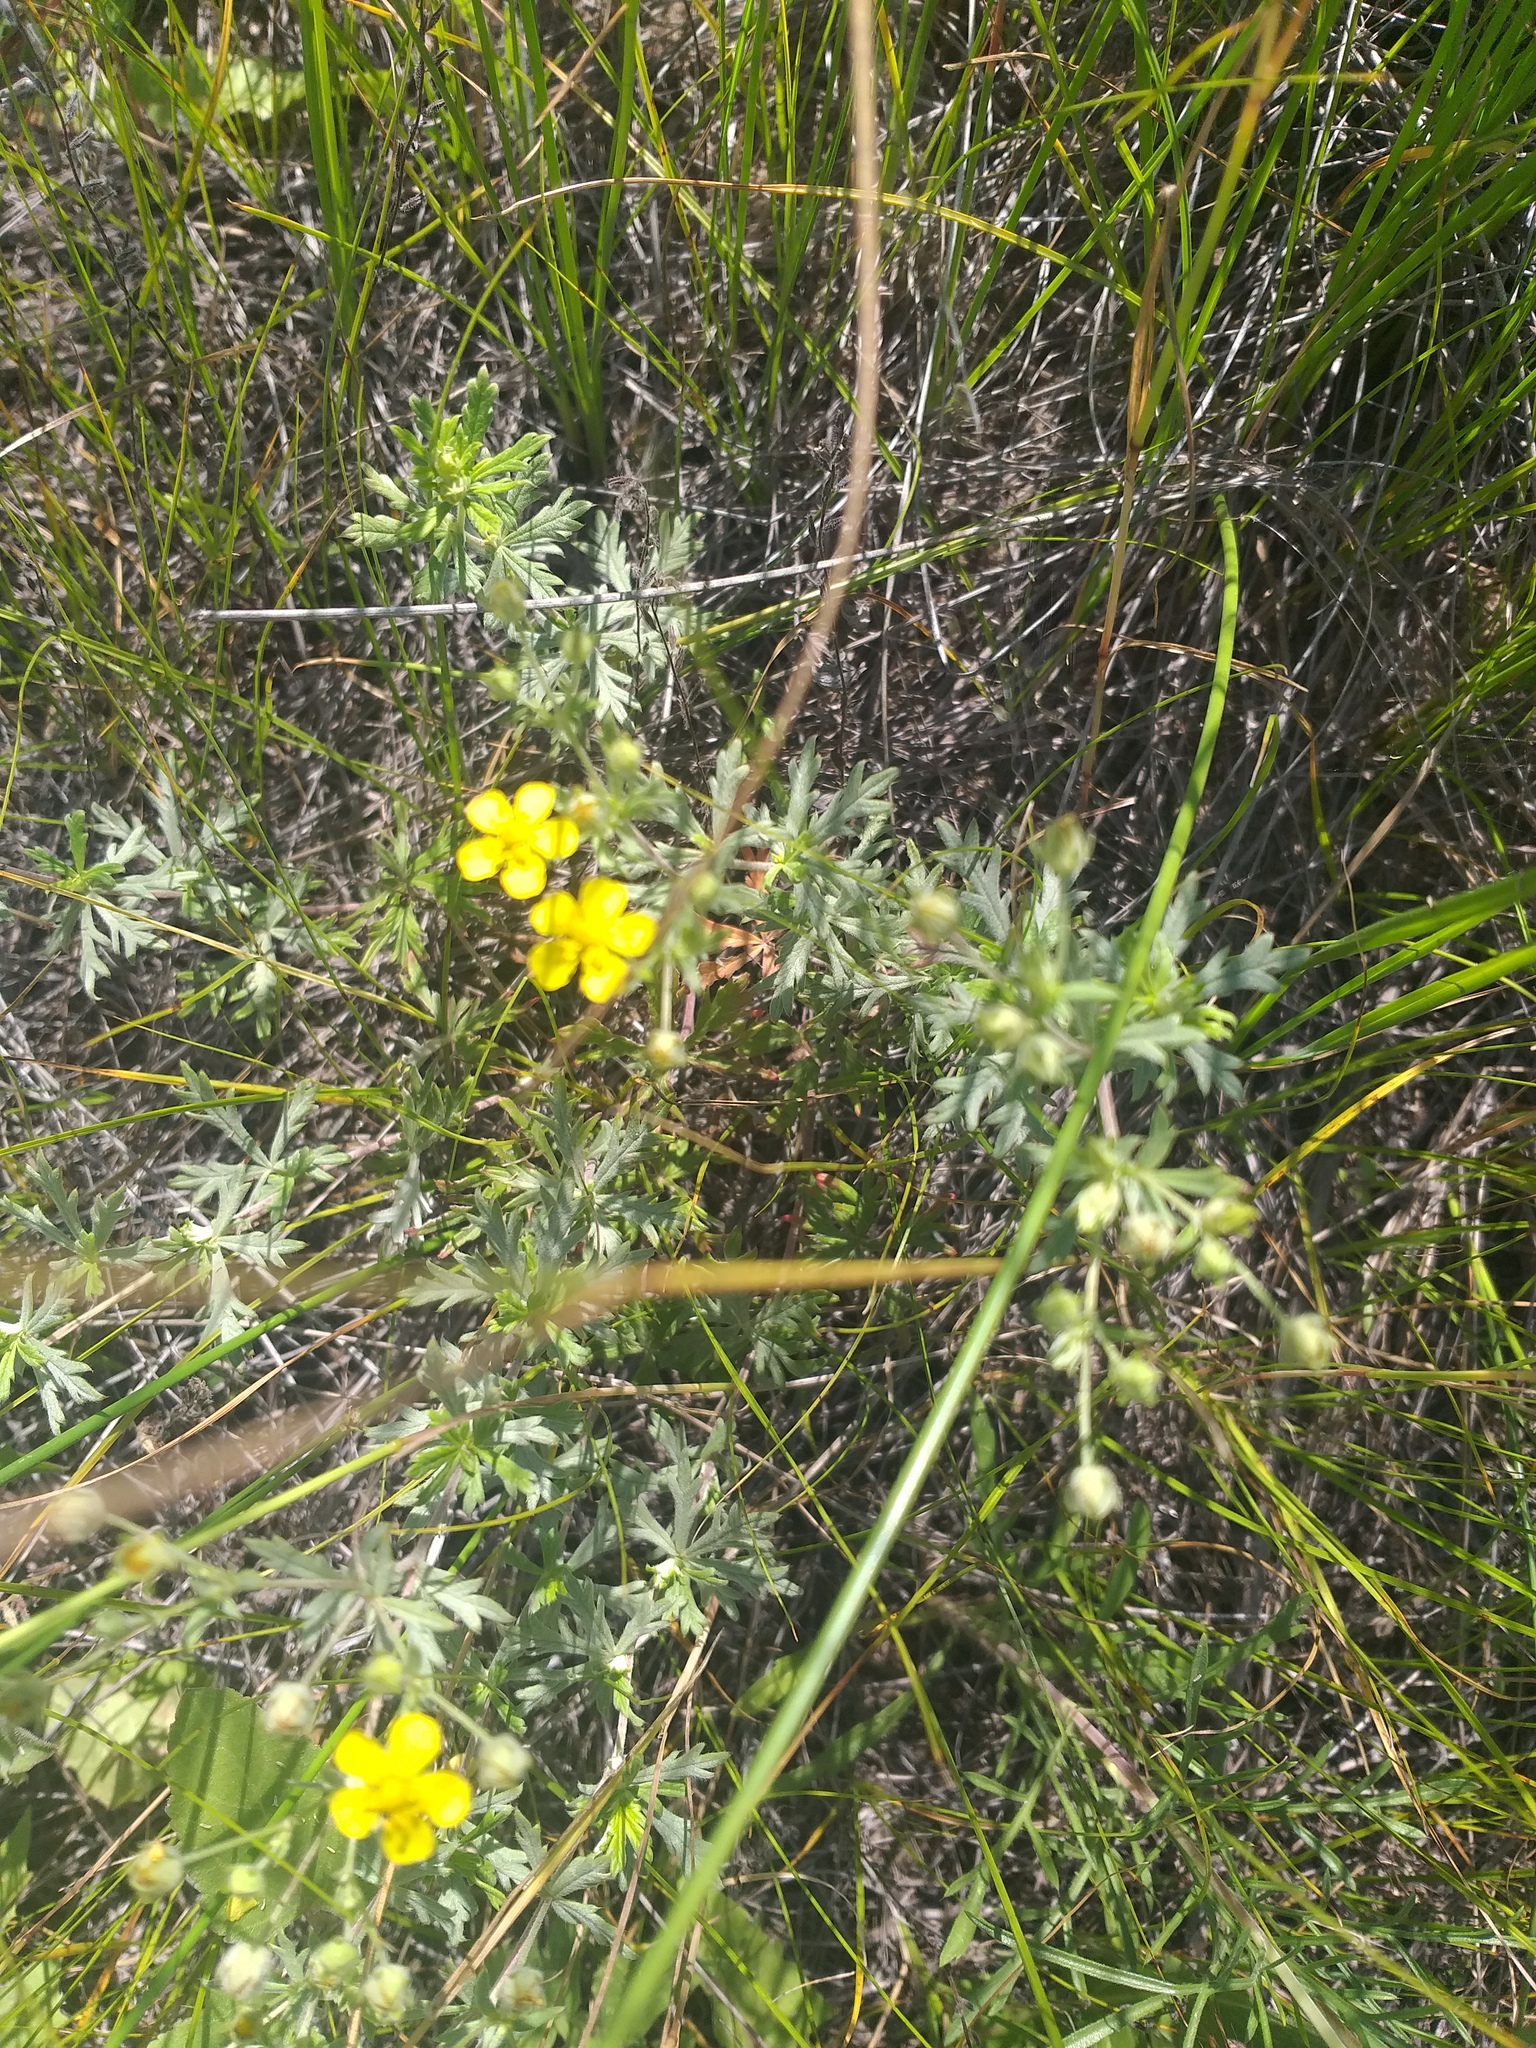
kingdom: Plantae
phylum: Tracheophyta
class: Magnoliopsida
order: Rosales
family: Rosaceae
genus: Potentilla
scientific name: Potentilla argentea
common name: Hoary cinquefoil
